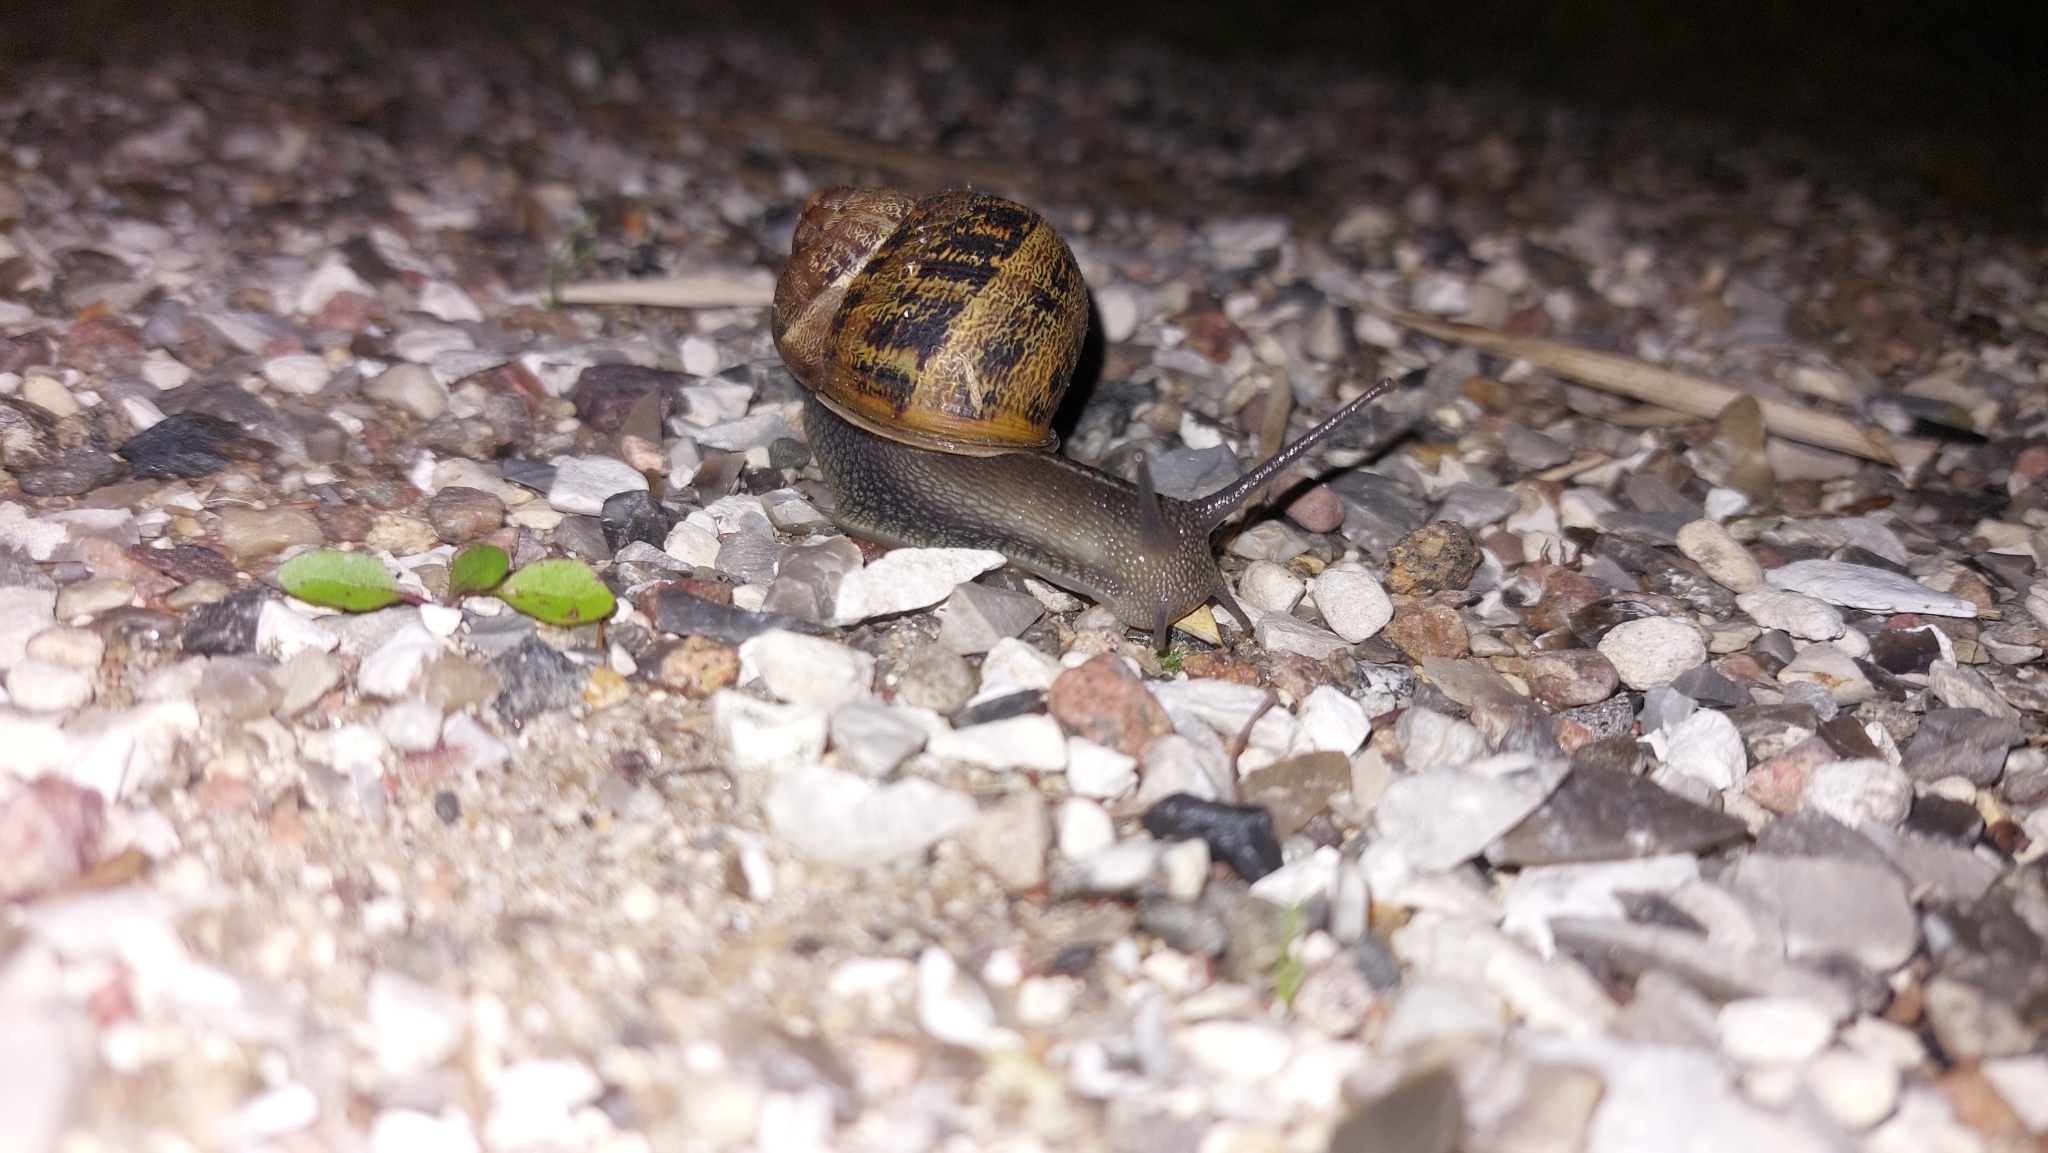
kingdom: Animalia
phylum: Mollusca
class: Gastropoda
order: Stylommatophora
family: Helicidae
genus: Cornu
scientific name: Cornu aspersum
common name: Brown garden snail
